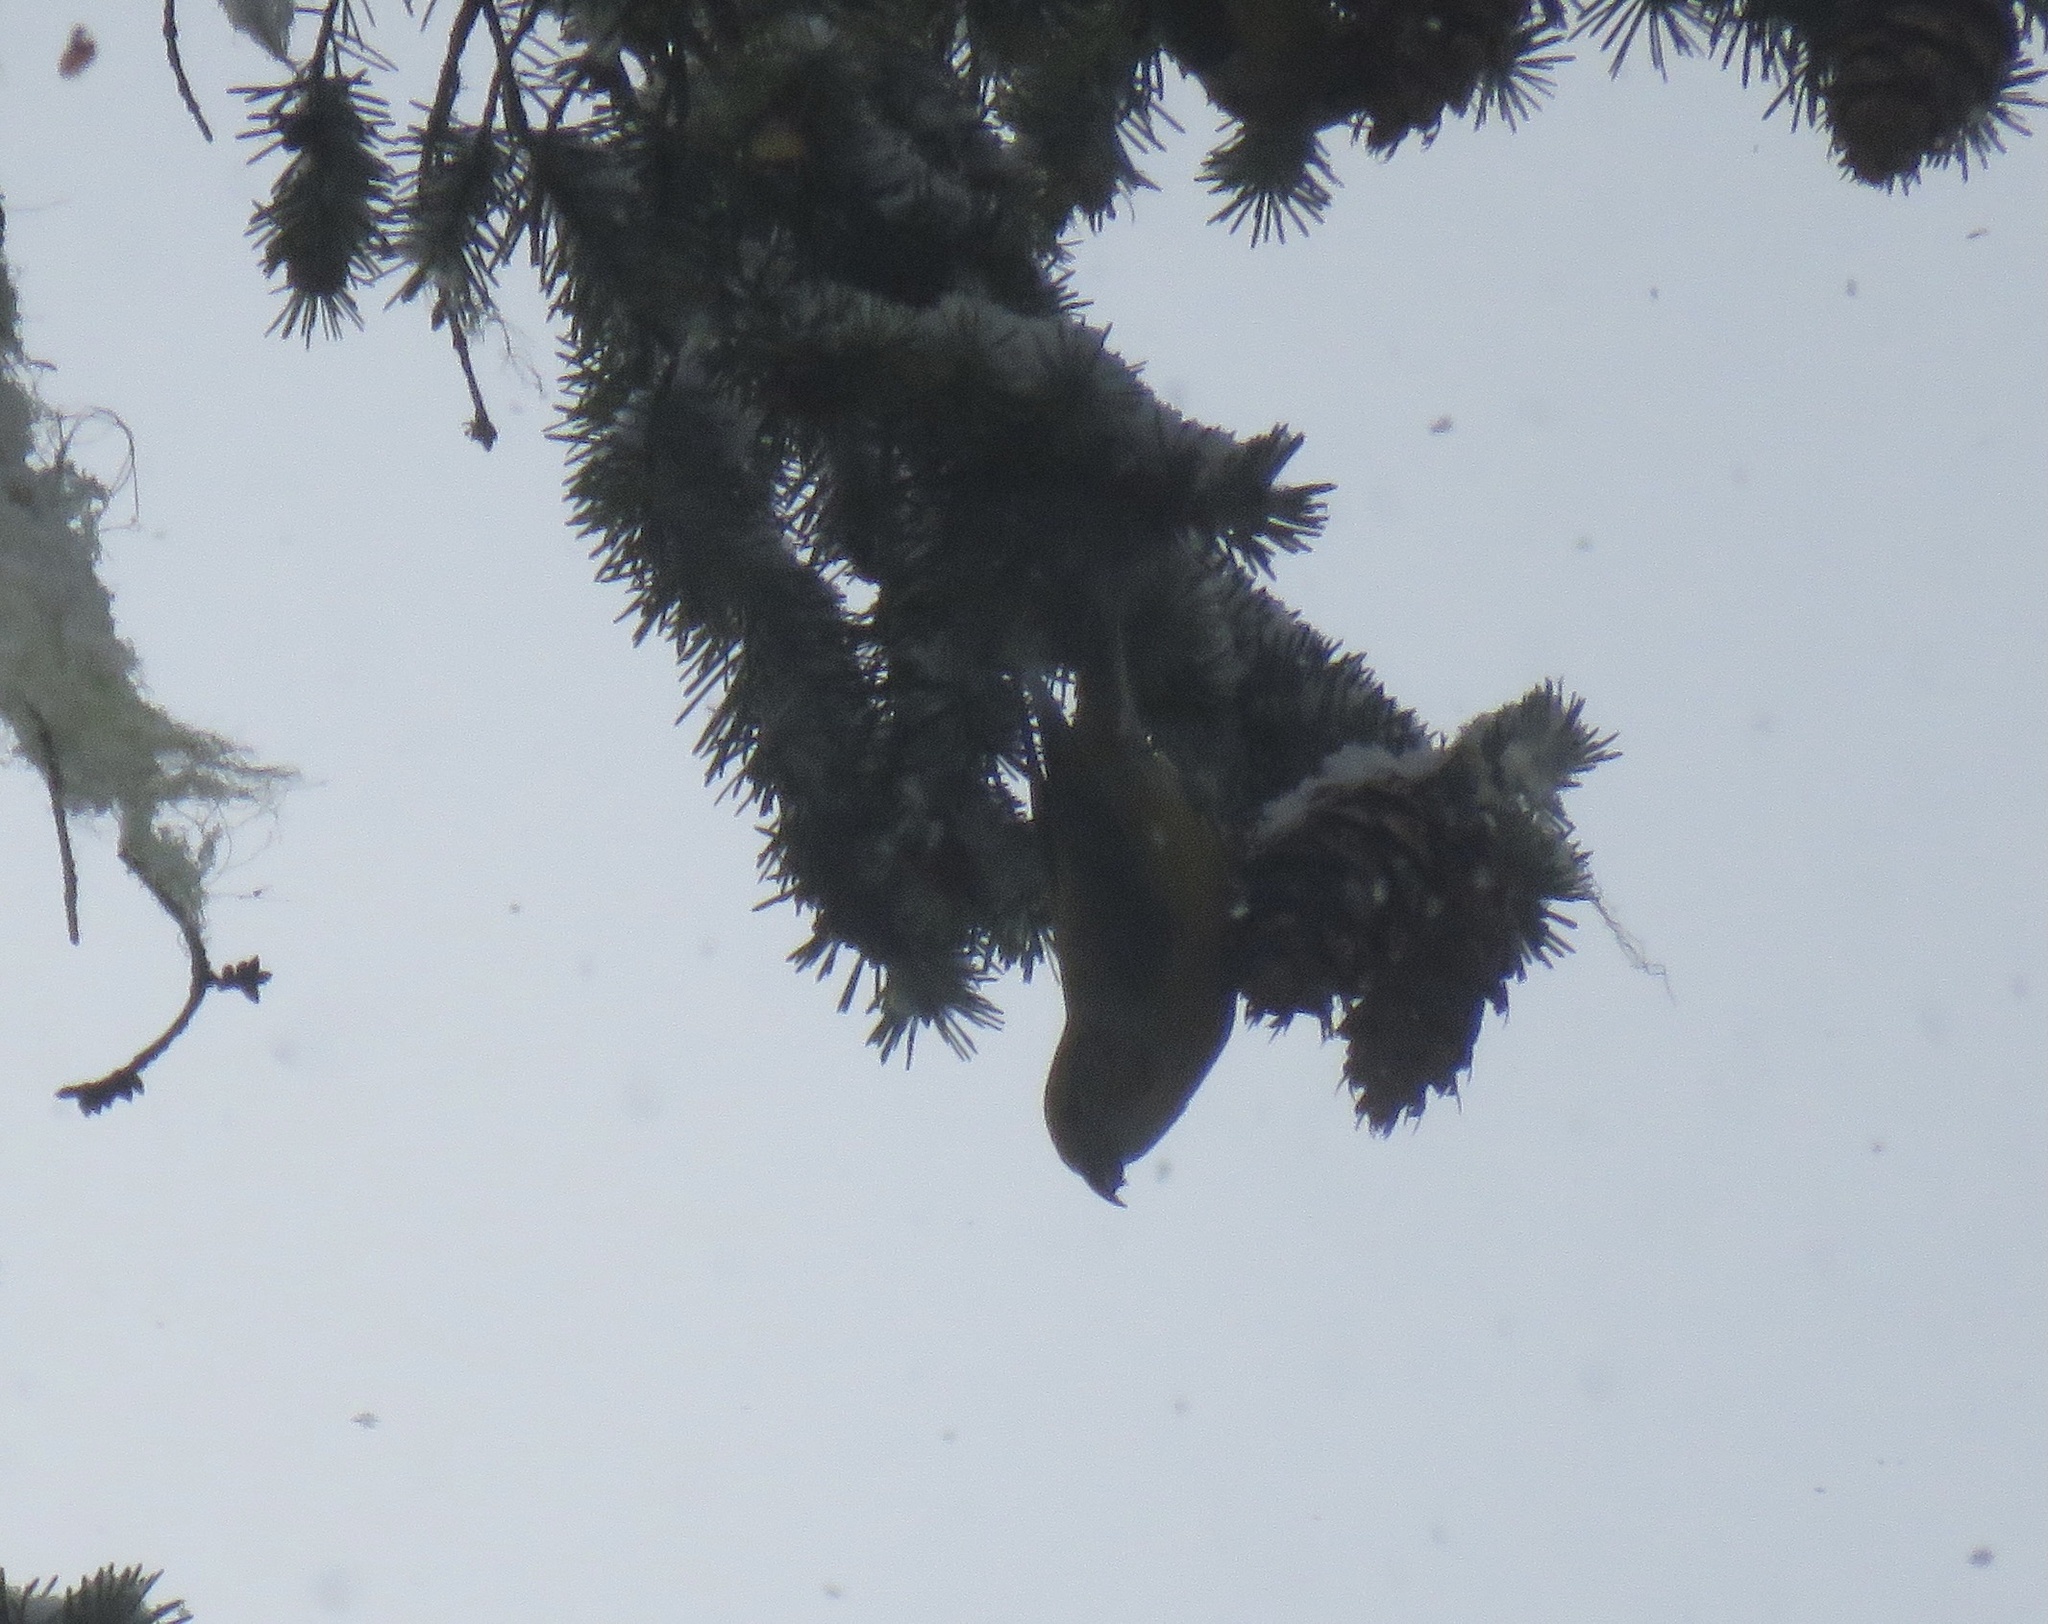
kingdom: Animalia
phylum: Chordata
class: Aves
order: Passeriformes
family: Fringillidae
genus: Loxia
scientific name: Loxia curvirostra
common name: Red crossbill
